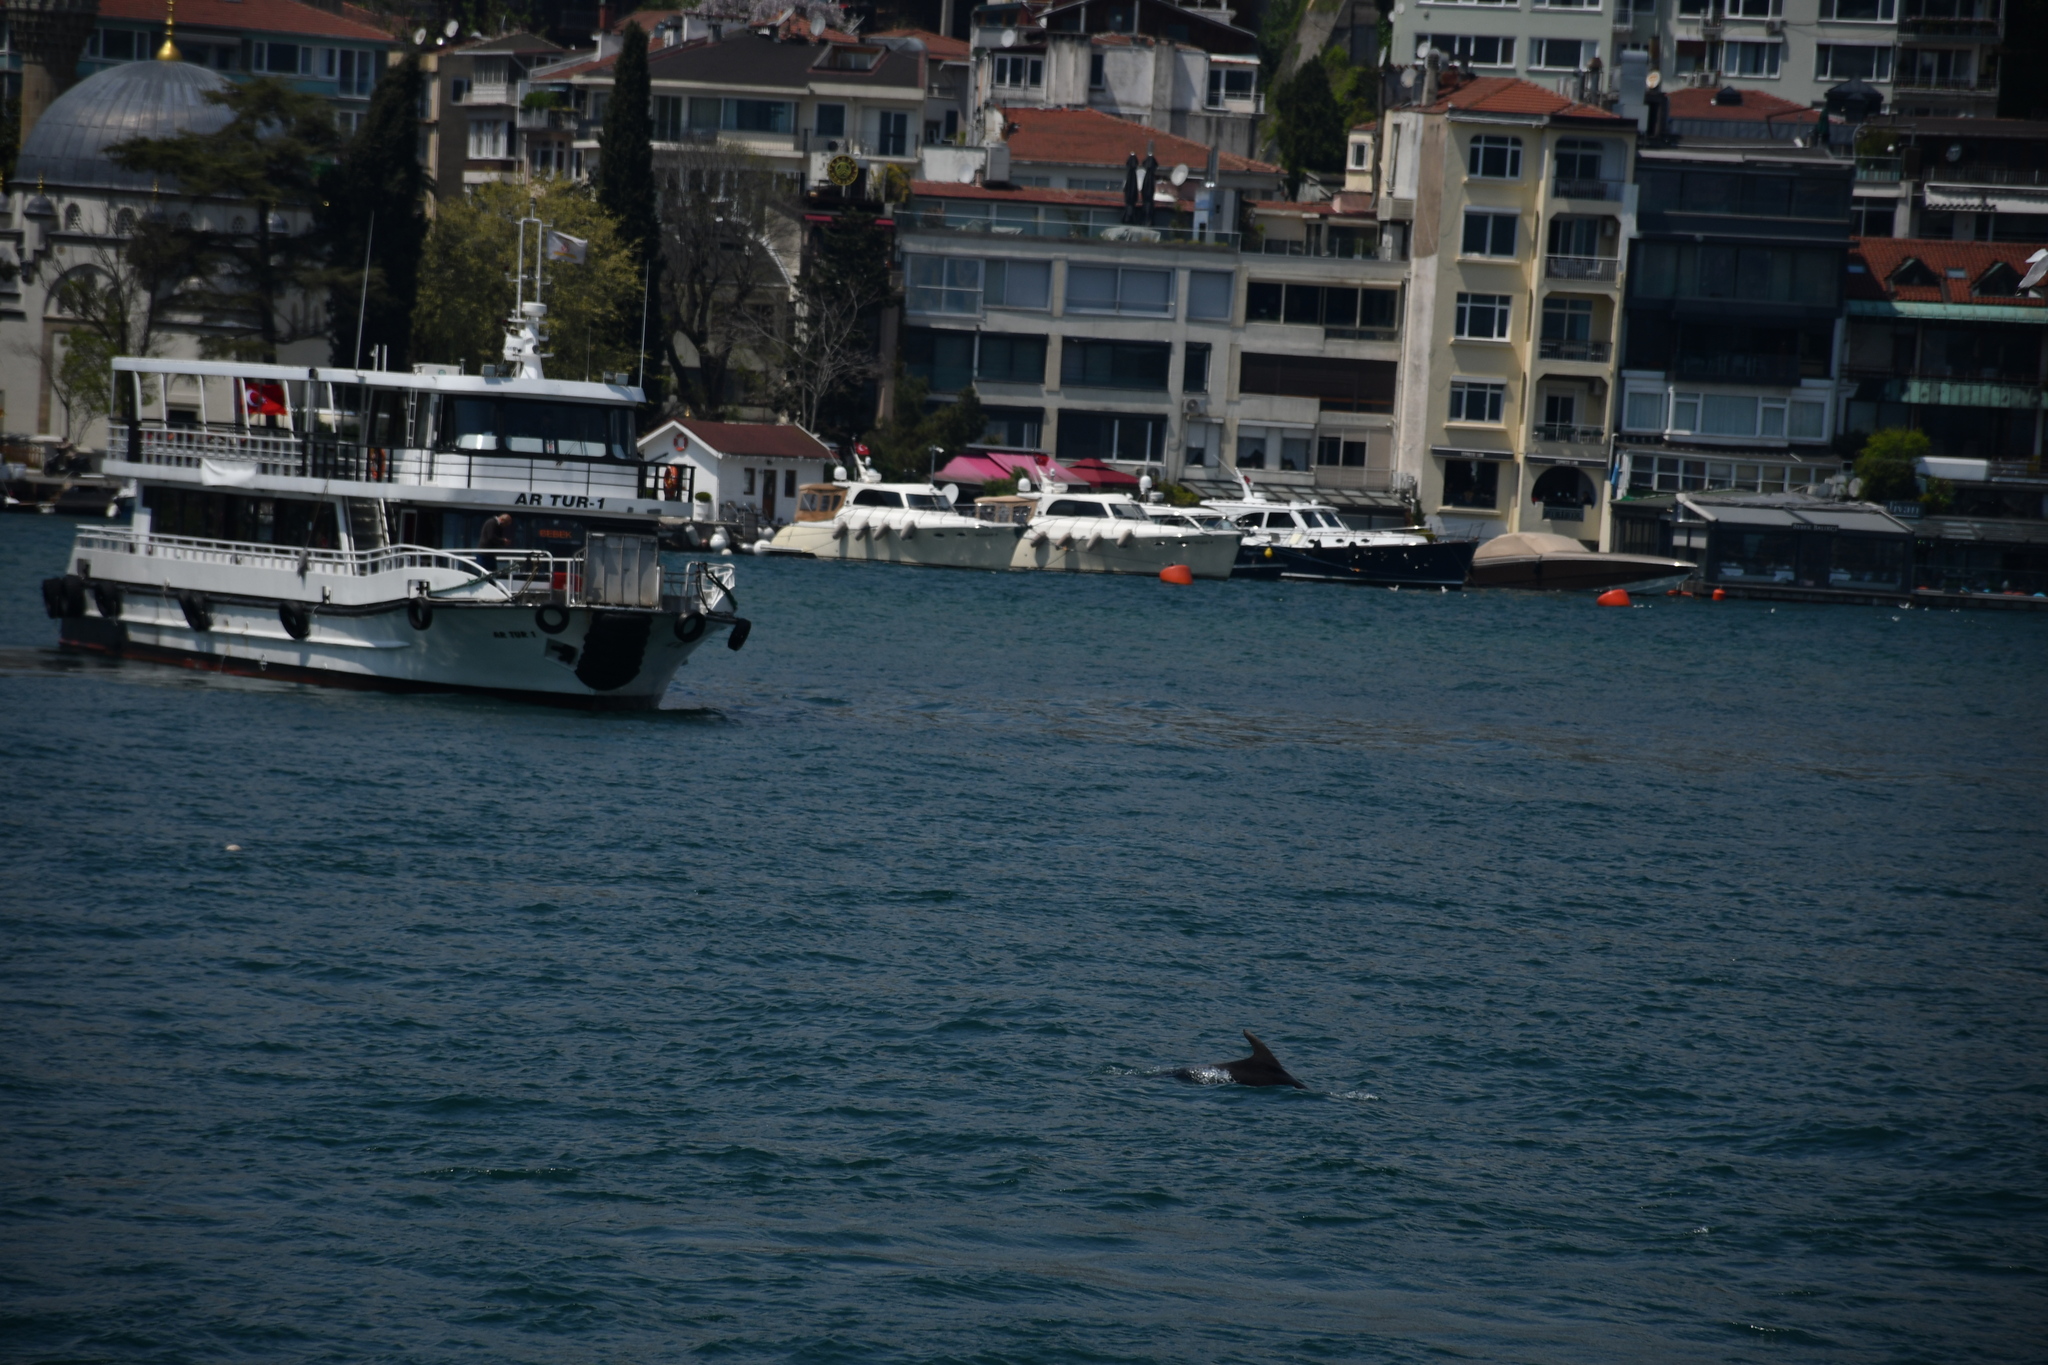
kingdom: Animalia
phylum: Chordata
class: Mammalia
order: Cetacea
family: Delphinidae
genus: Tursiops
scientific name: Tursiops truncatus
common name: Bottlenose dolphin
